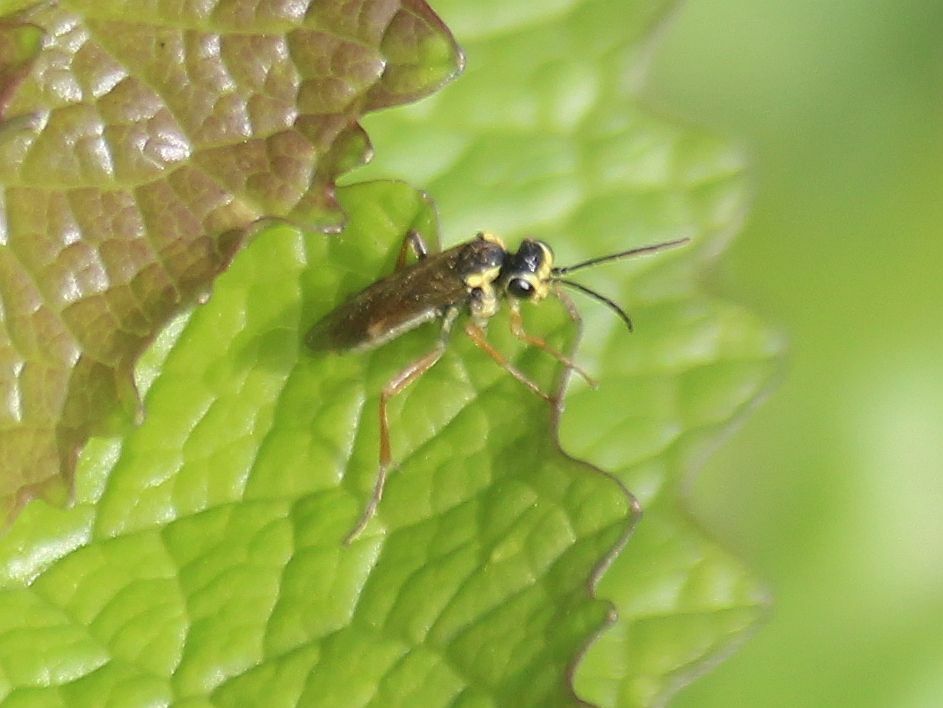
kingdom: Animalia
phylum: Arthropoda
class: Insecta
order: Hymenoptera
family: Tenthredinidae
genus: Aglaostigma
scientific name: Aglaostigma fulvipes
